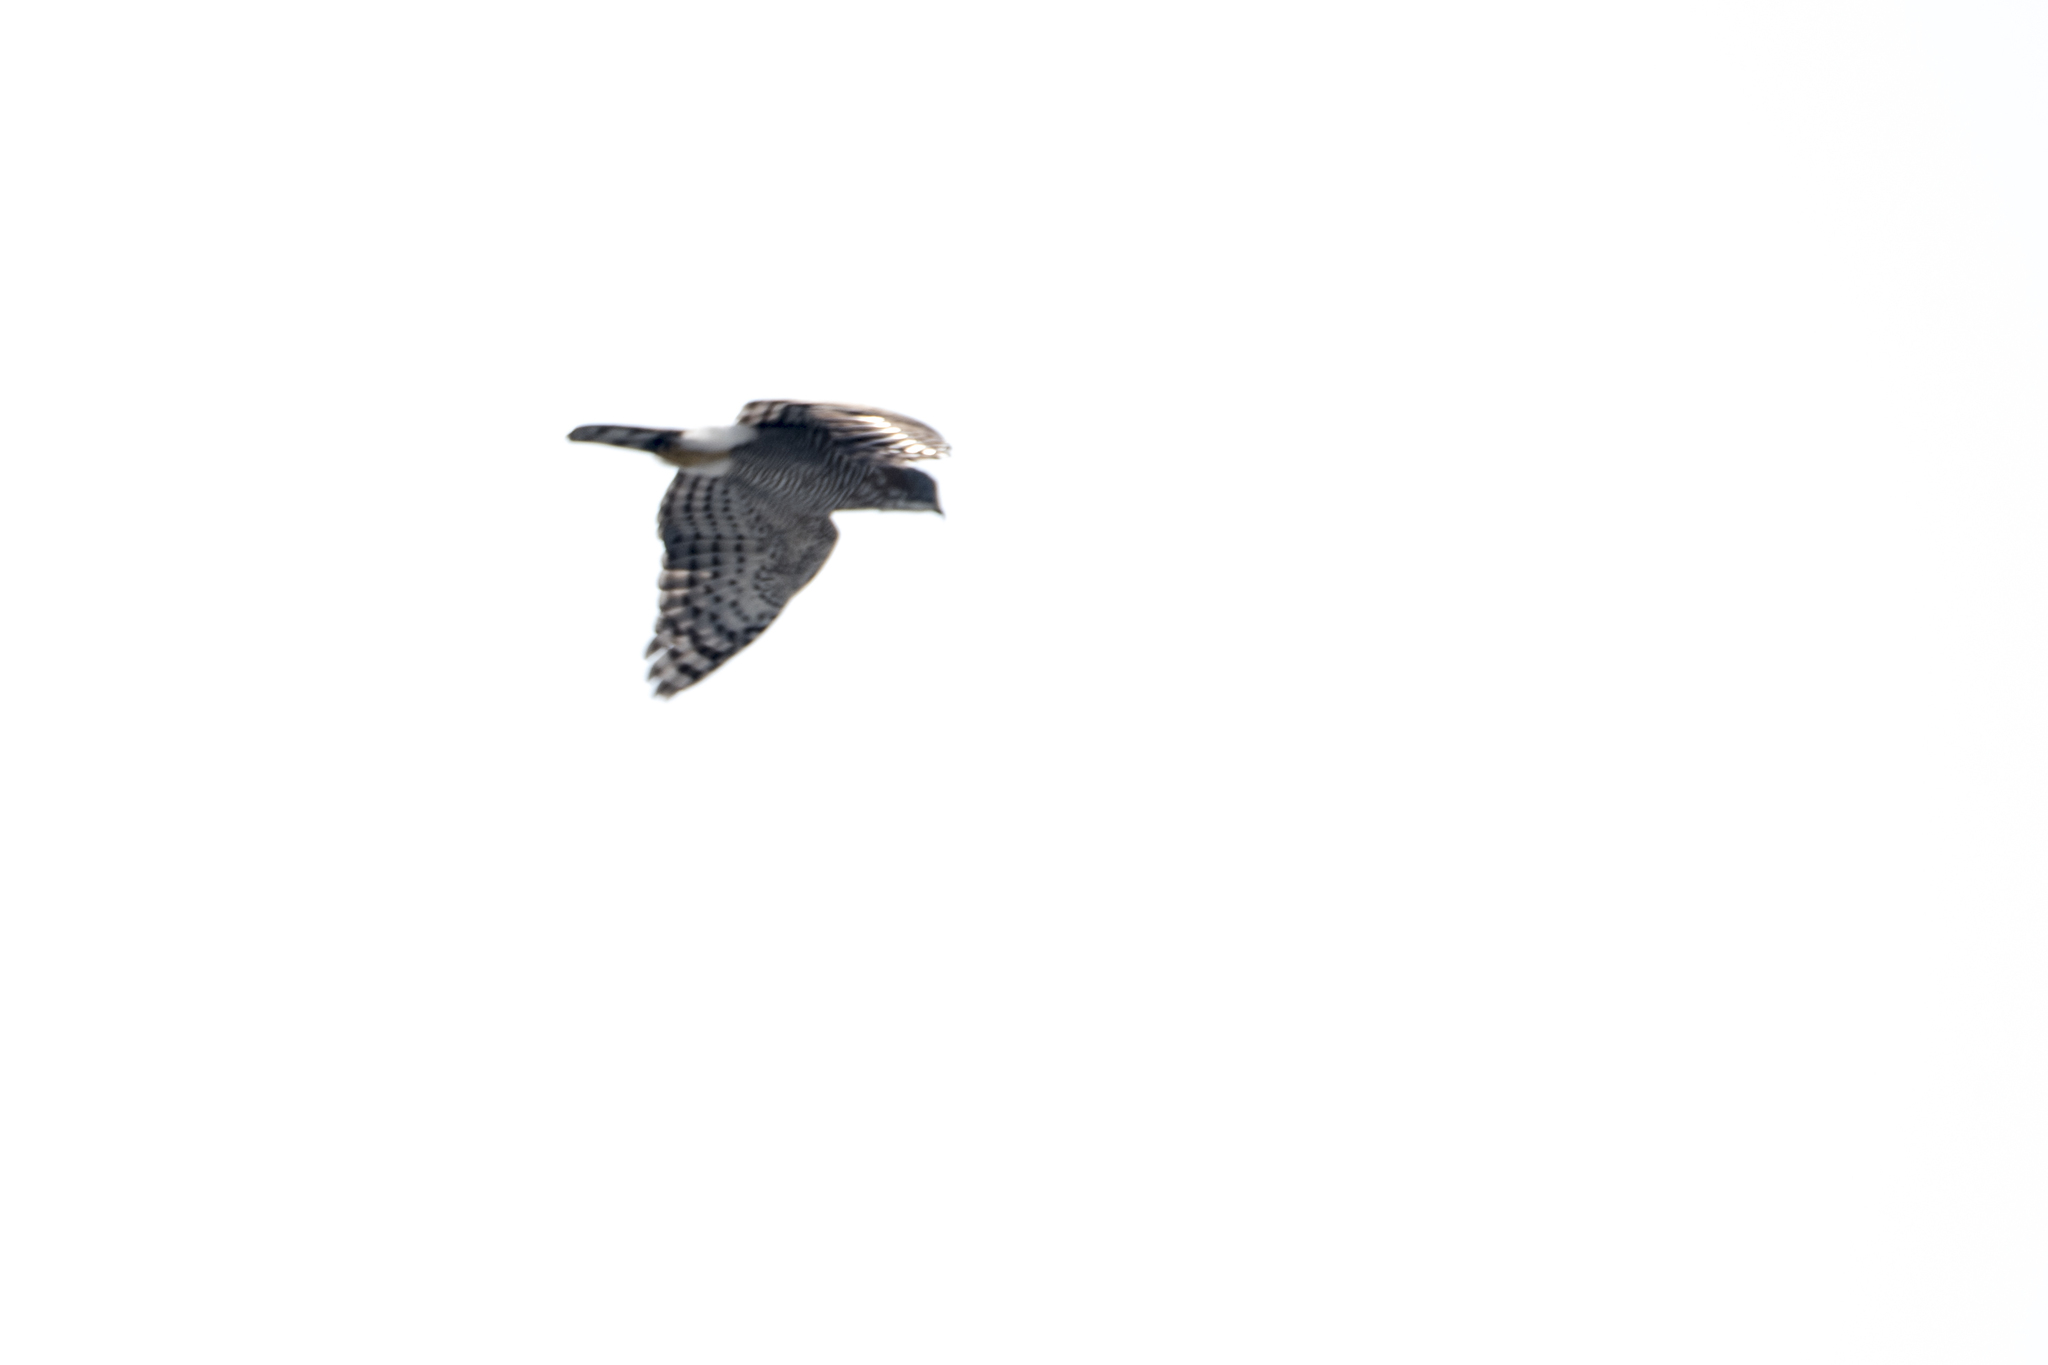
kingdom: Animalia
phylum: Chordata
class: Aves
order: Accipitriformes
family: Accipitridae
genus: Accipiter
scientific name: Accipiter trivirgatus
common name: Crested goshawk
